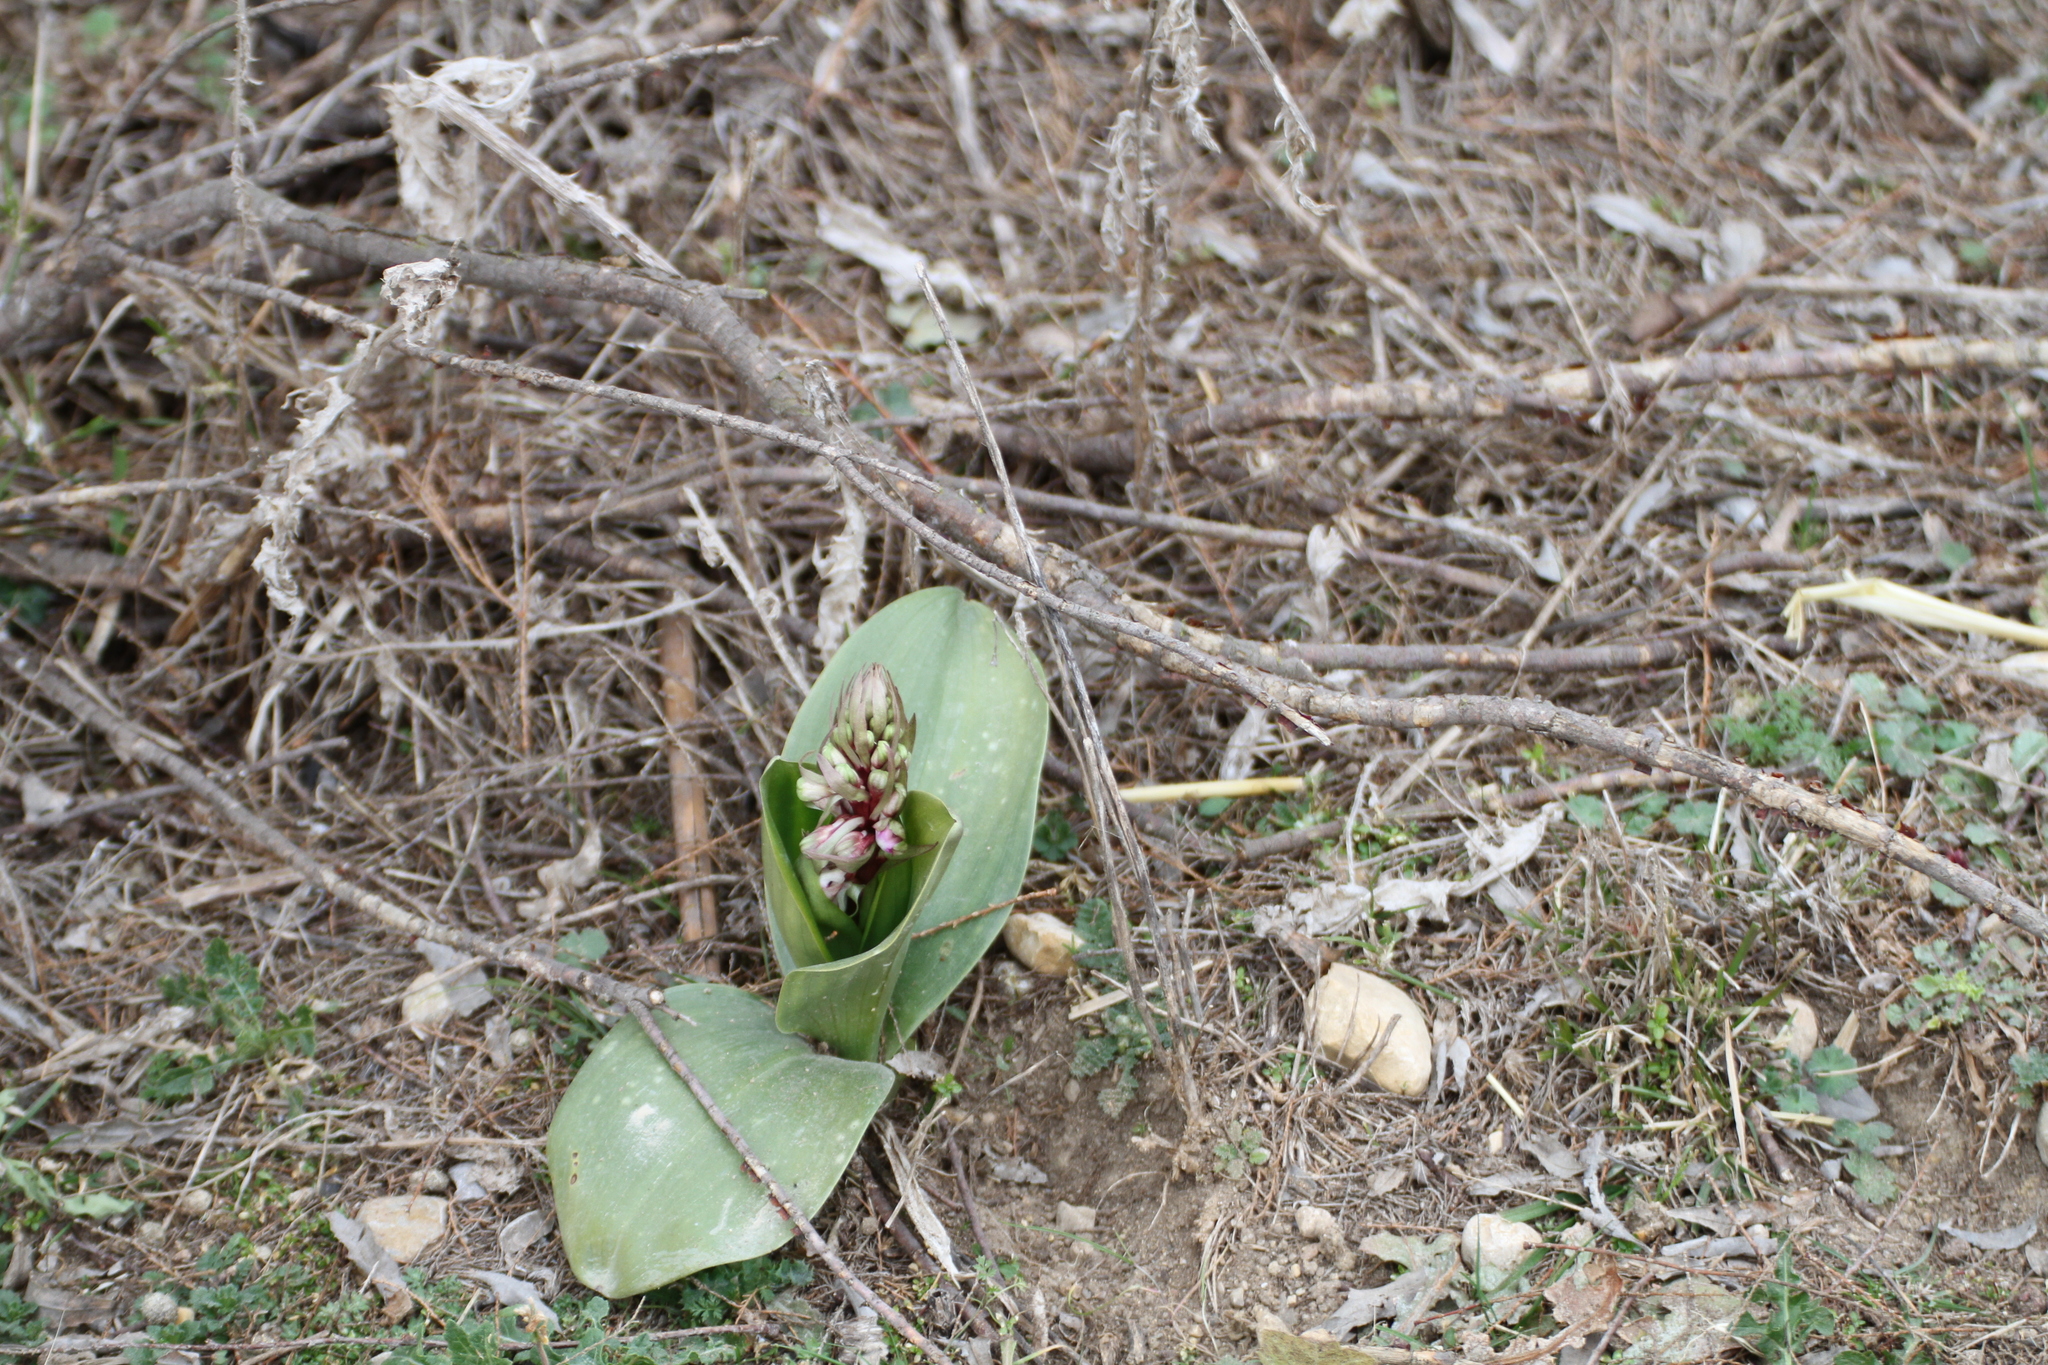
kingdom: Plantae
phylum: Tracheophyta
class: Liliopsida
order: Asparagales
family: Orchidaceae
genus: Himantoglossum
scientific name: Himantoglossum robertianum
